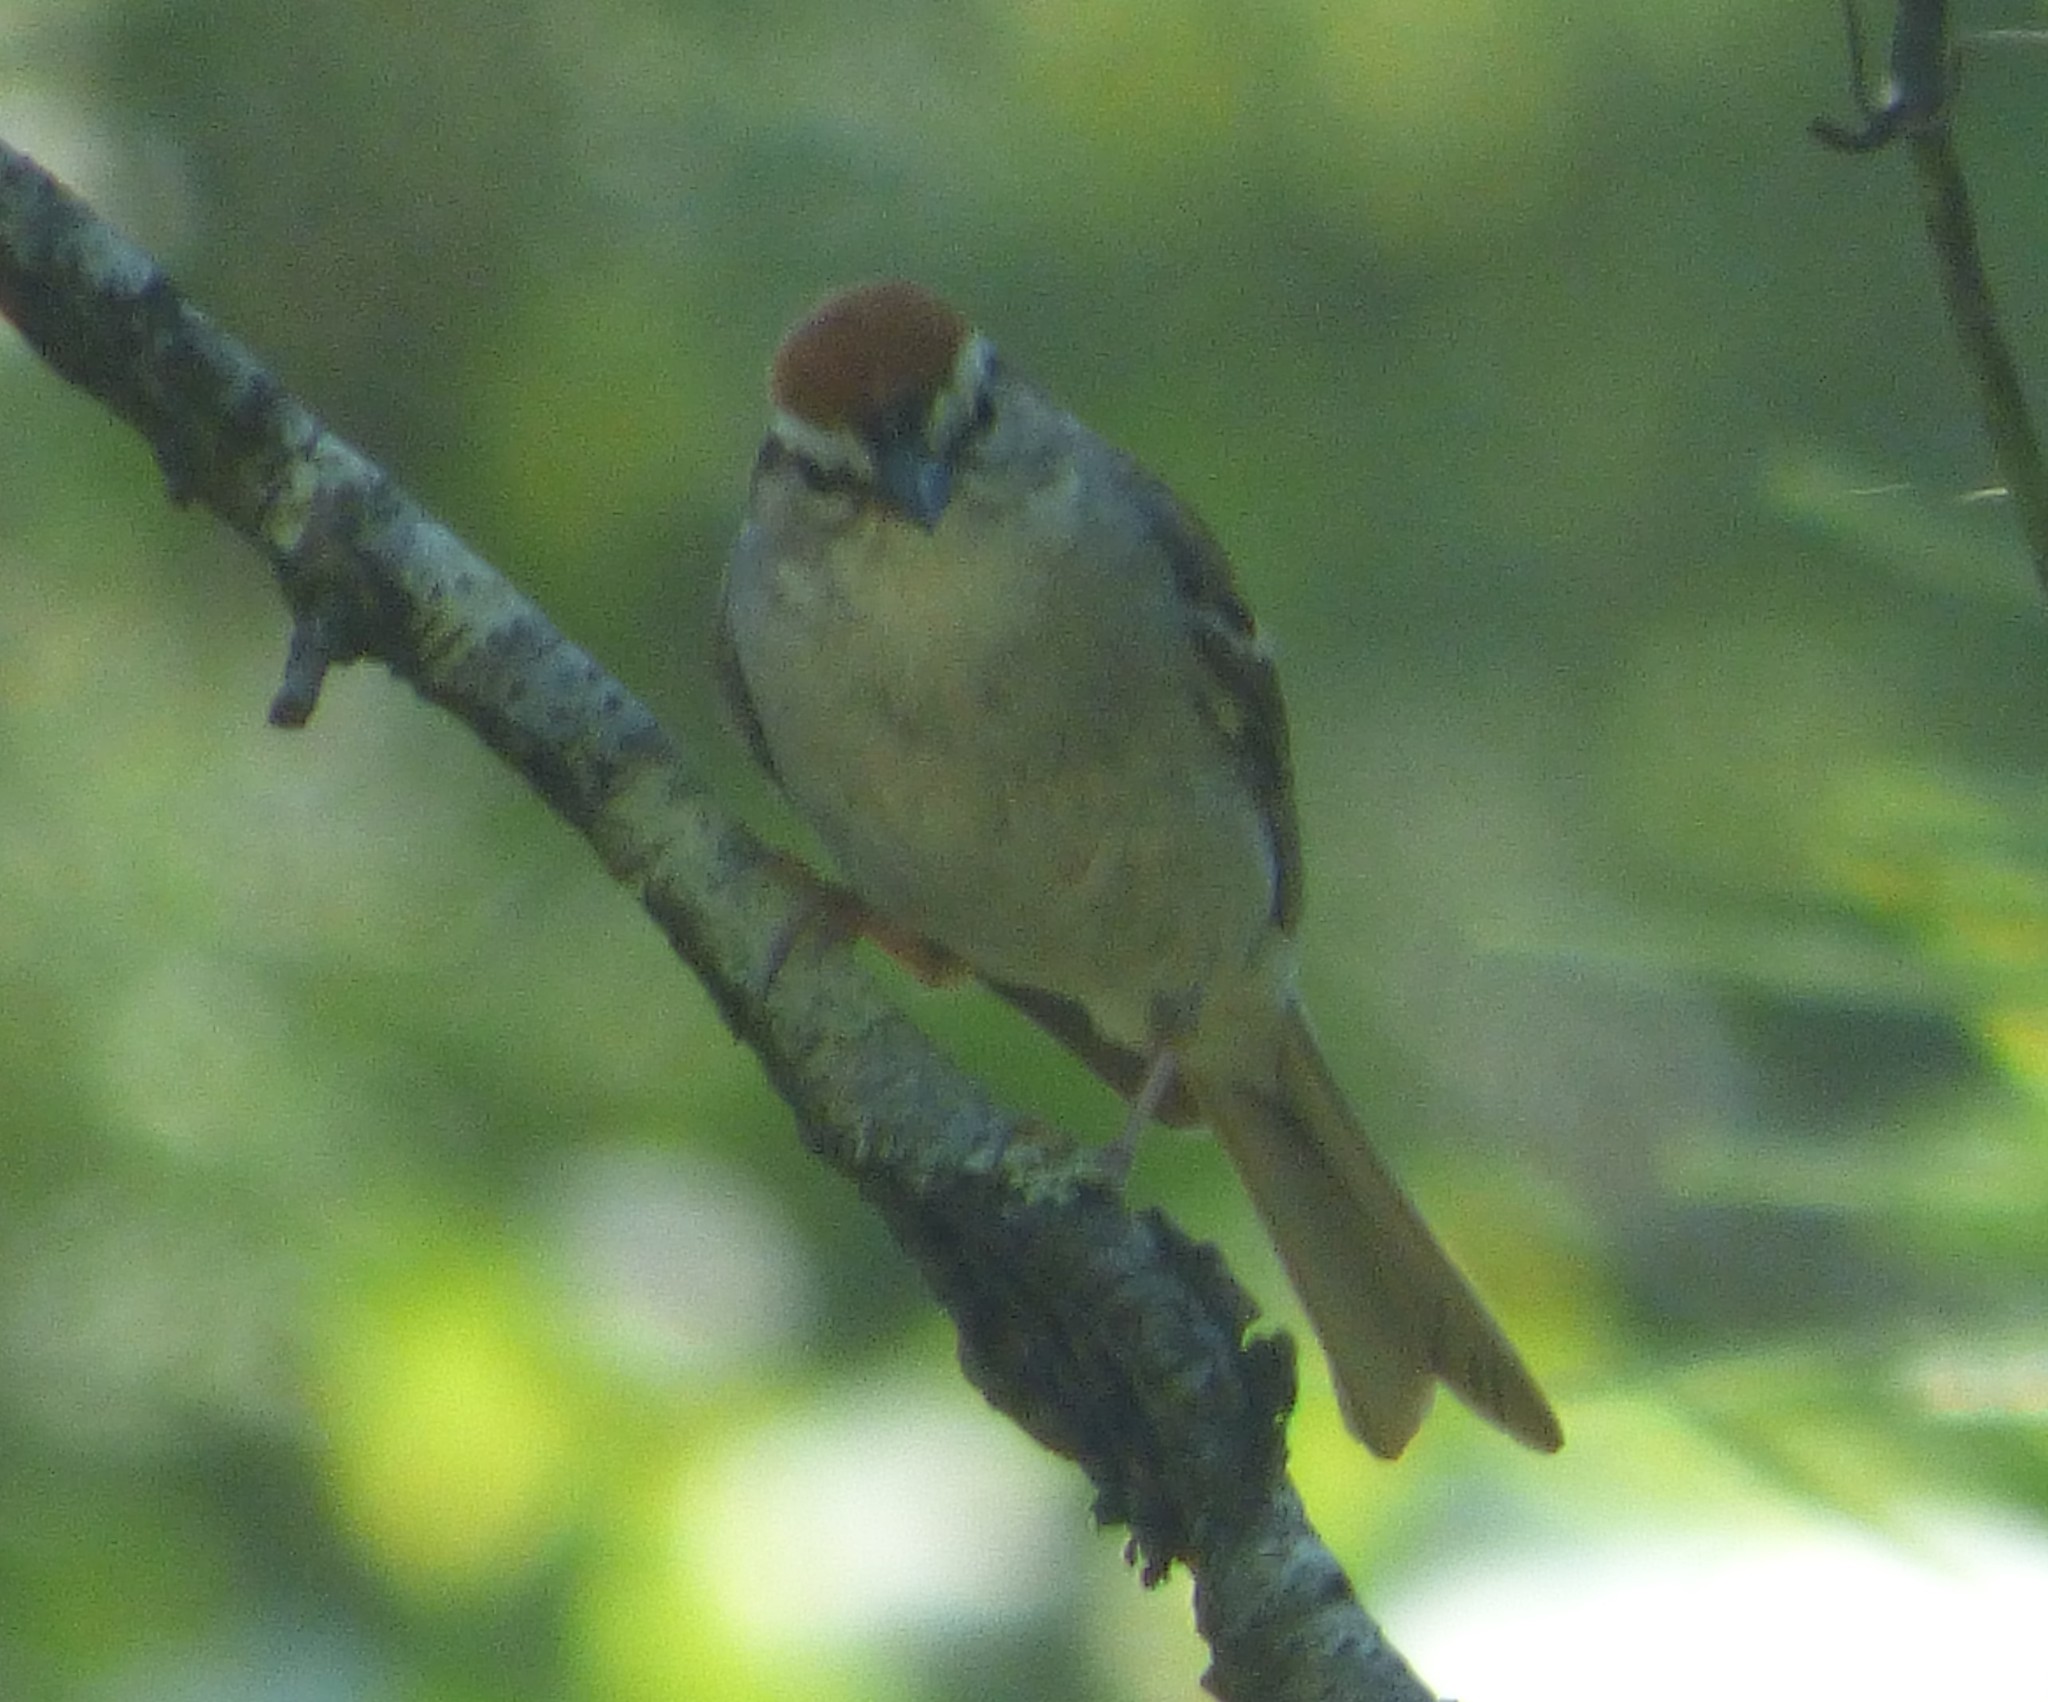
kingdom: Animalia
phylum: Chordata
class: Aves
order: Passeriformes
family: Passerellidae
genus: Spizella
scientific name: Spizella passerina
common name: Chipping sparrow
